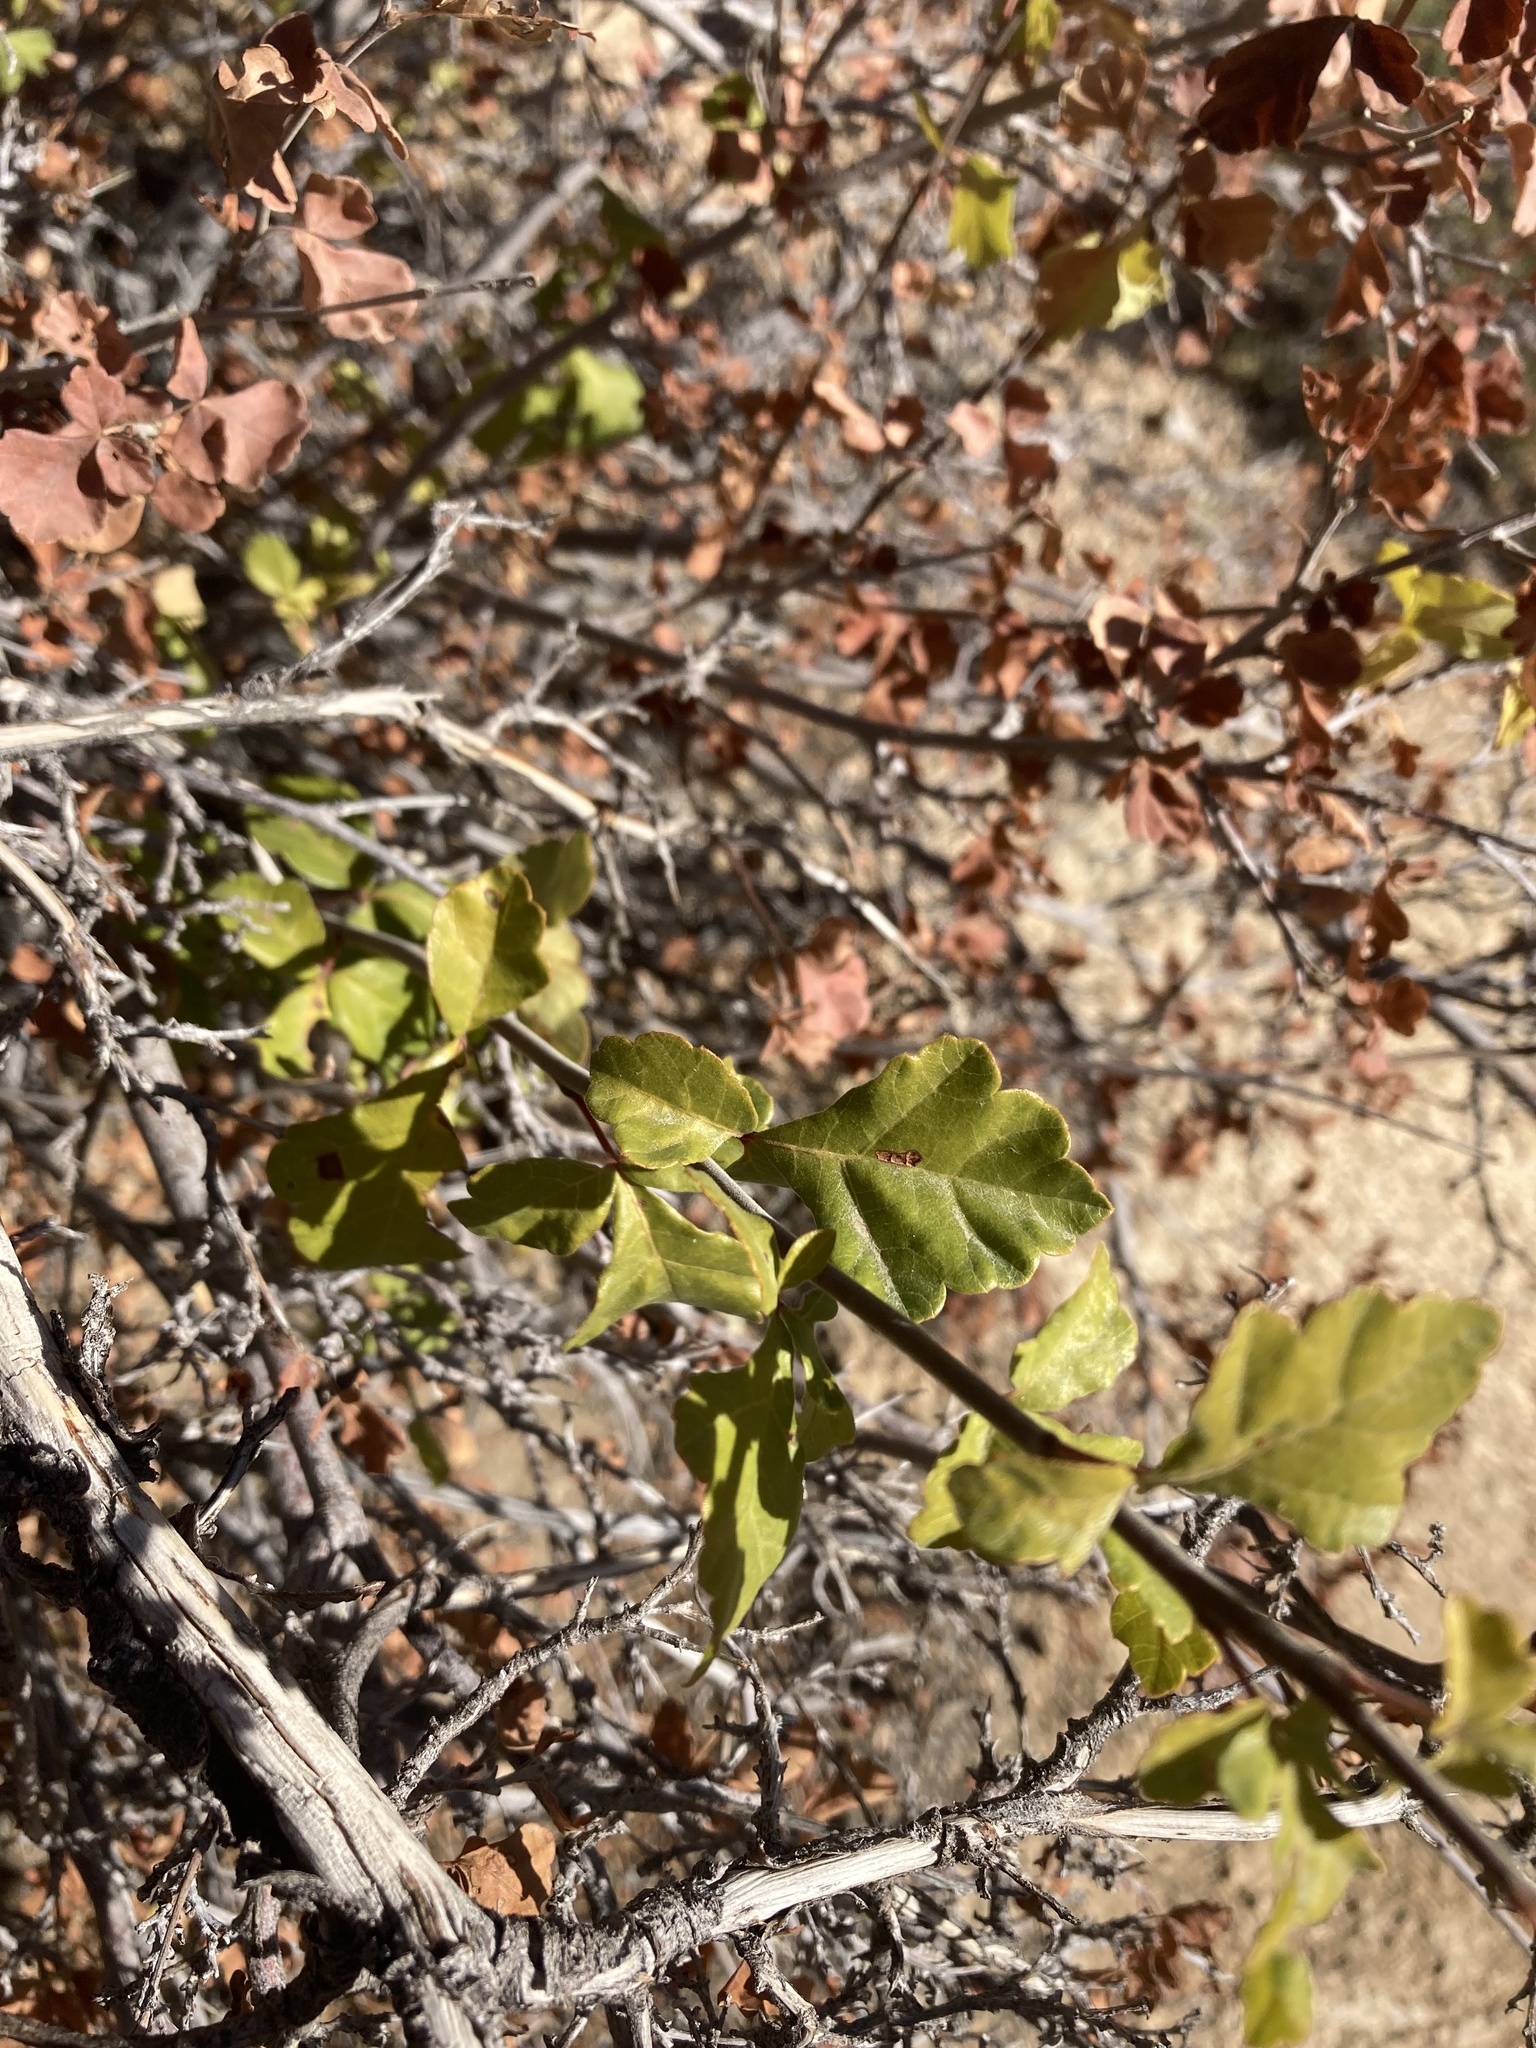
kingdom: Plantae
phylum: Tracheophyta
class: Magnoliopsida
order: Sapindales
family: Anacardiaceae
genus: Rhus
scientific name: Rhus aromatica
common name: Aromatic sumac
